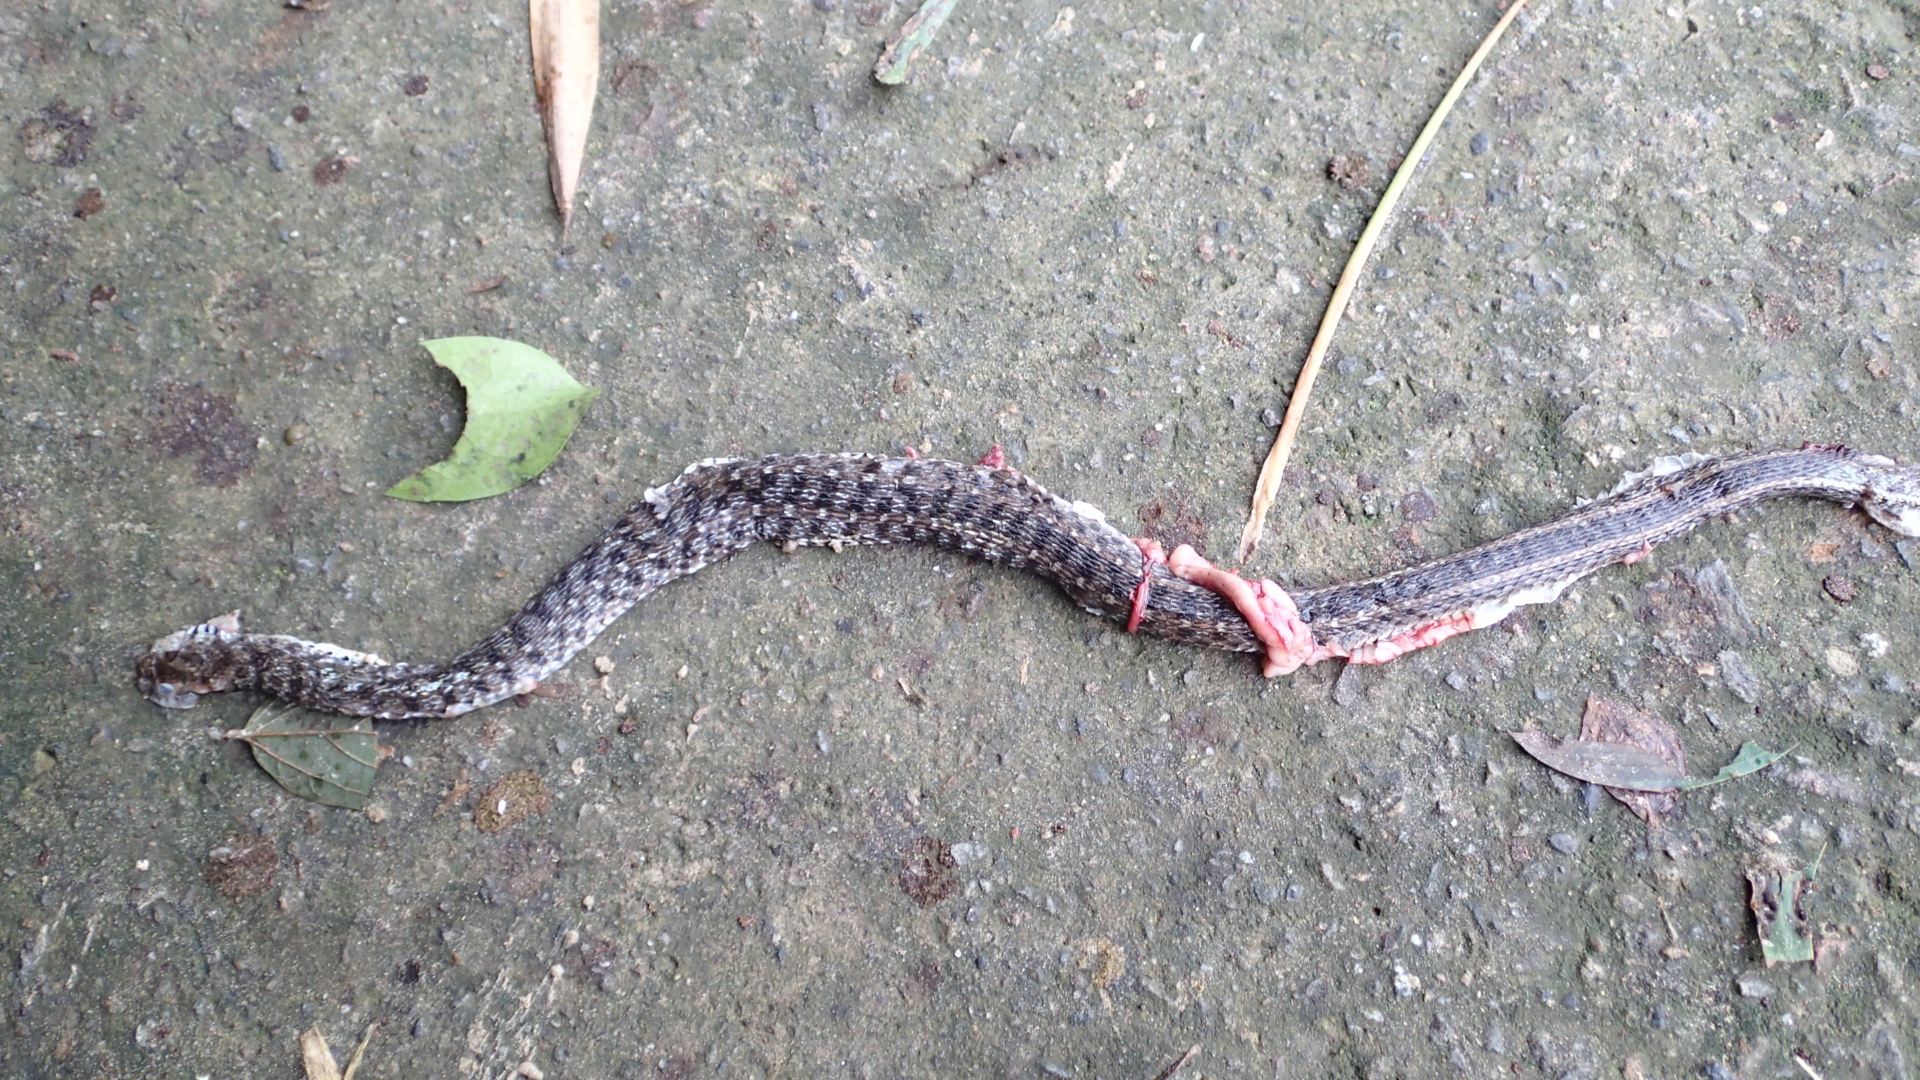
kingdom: Animalia
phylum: Chordata
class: Squamata
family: Colubridae
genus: Amphiesma
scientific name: Amphiesma stolatum
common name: Buff striped keelback
